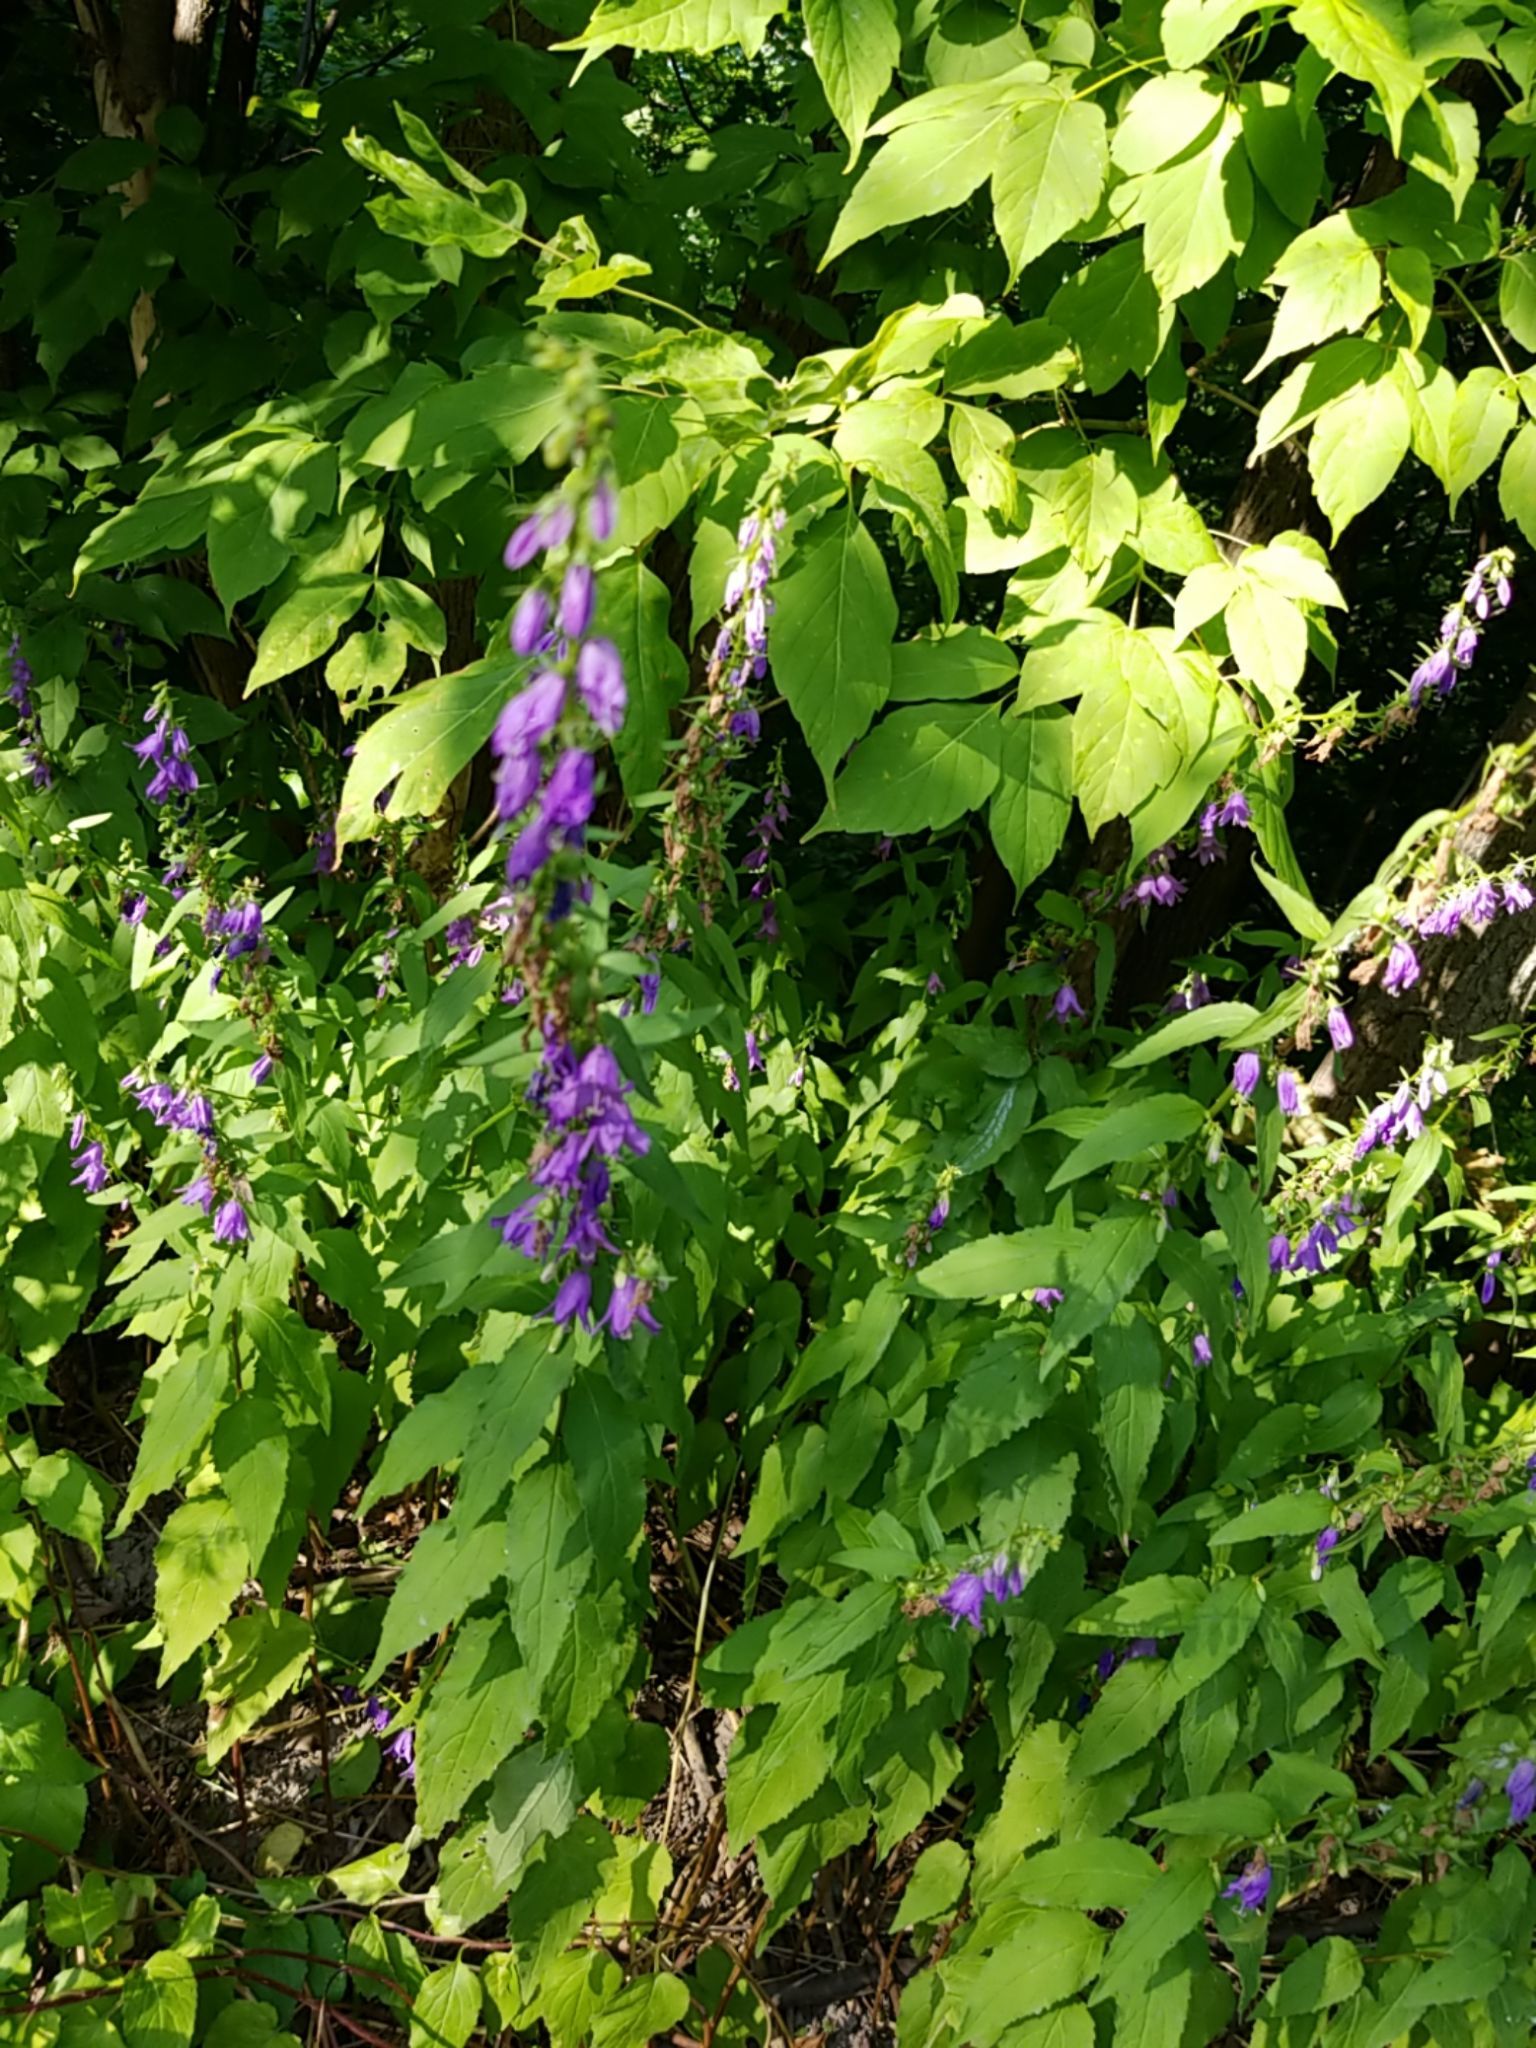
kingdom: Plantae
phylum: Tracheophyta
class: Magnoliopsida
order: Asterales
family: Campanulaceae
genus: Campanula
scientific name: Campanula rapunculoides
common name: Creeping bellflower
